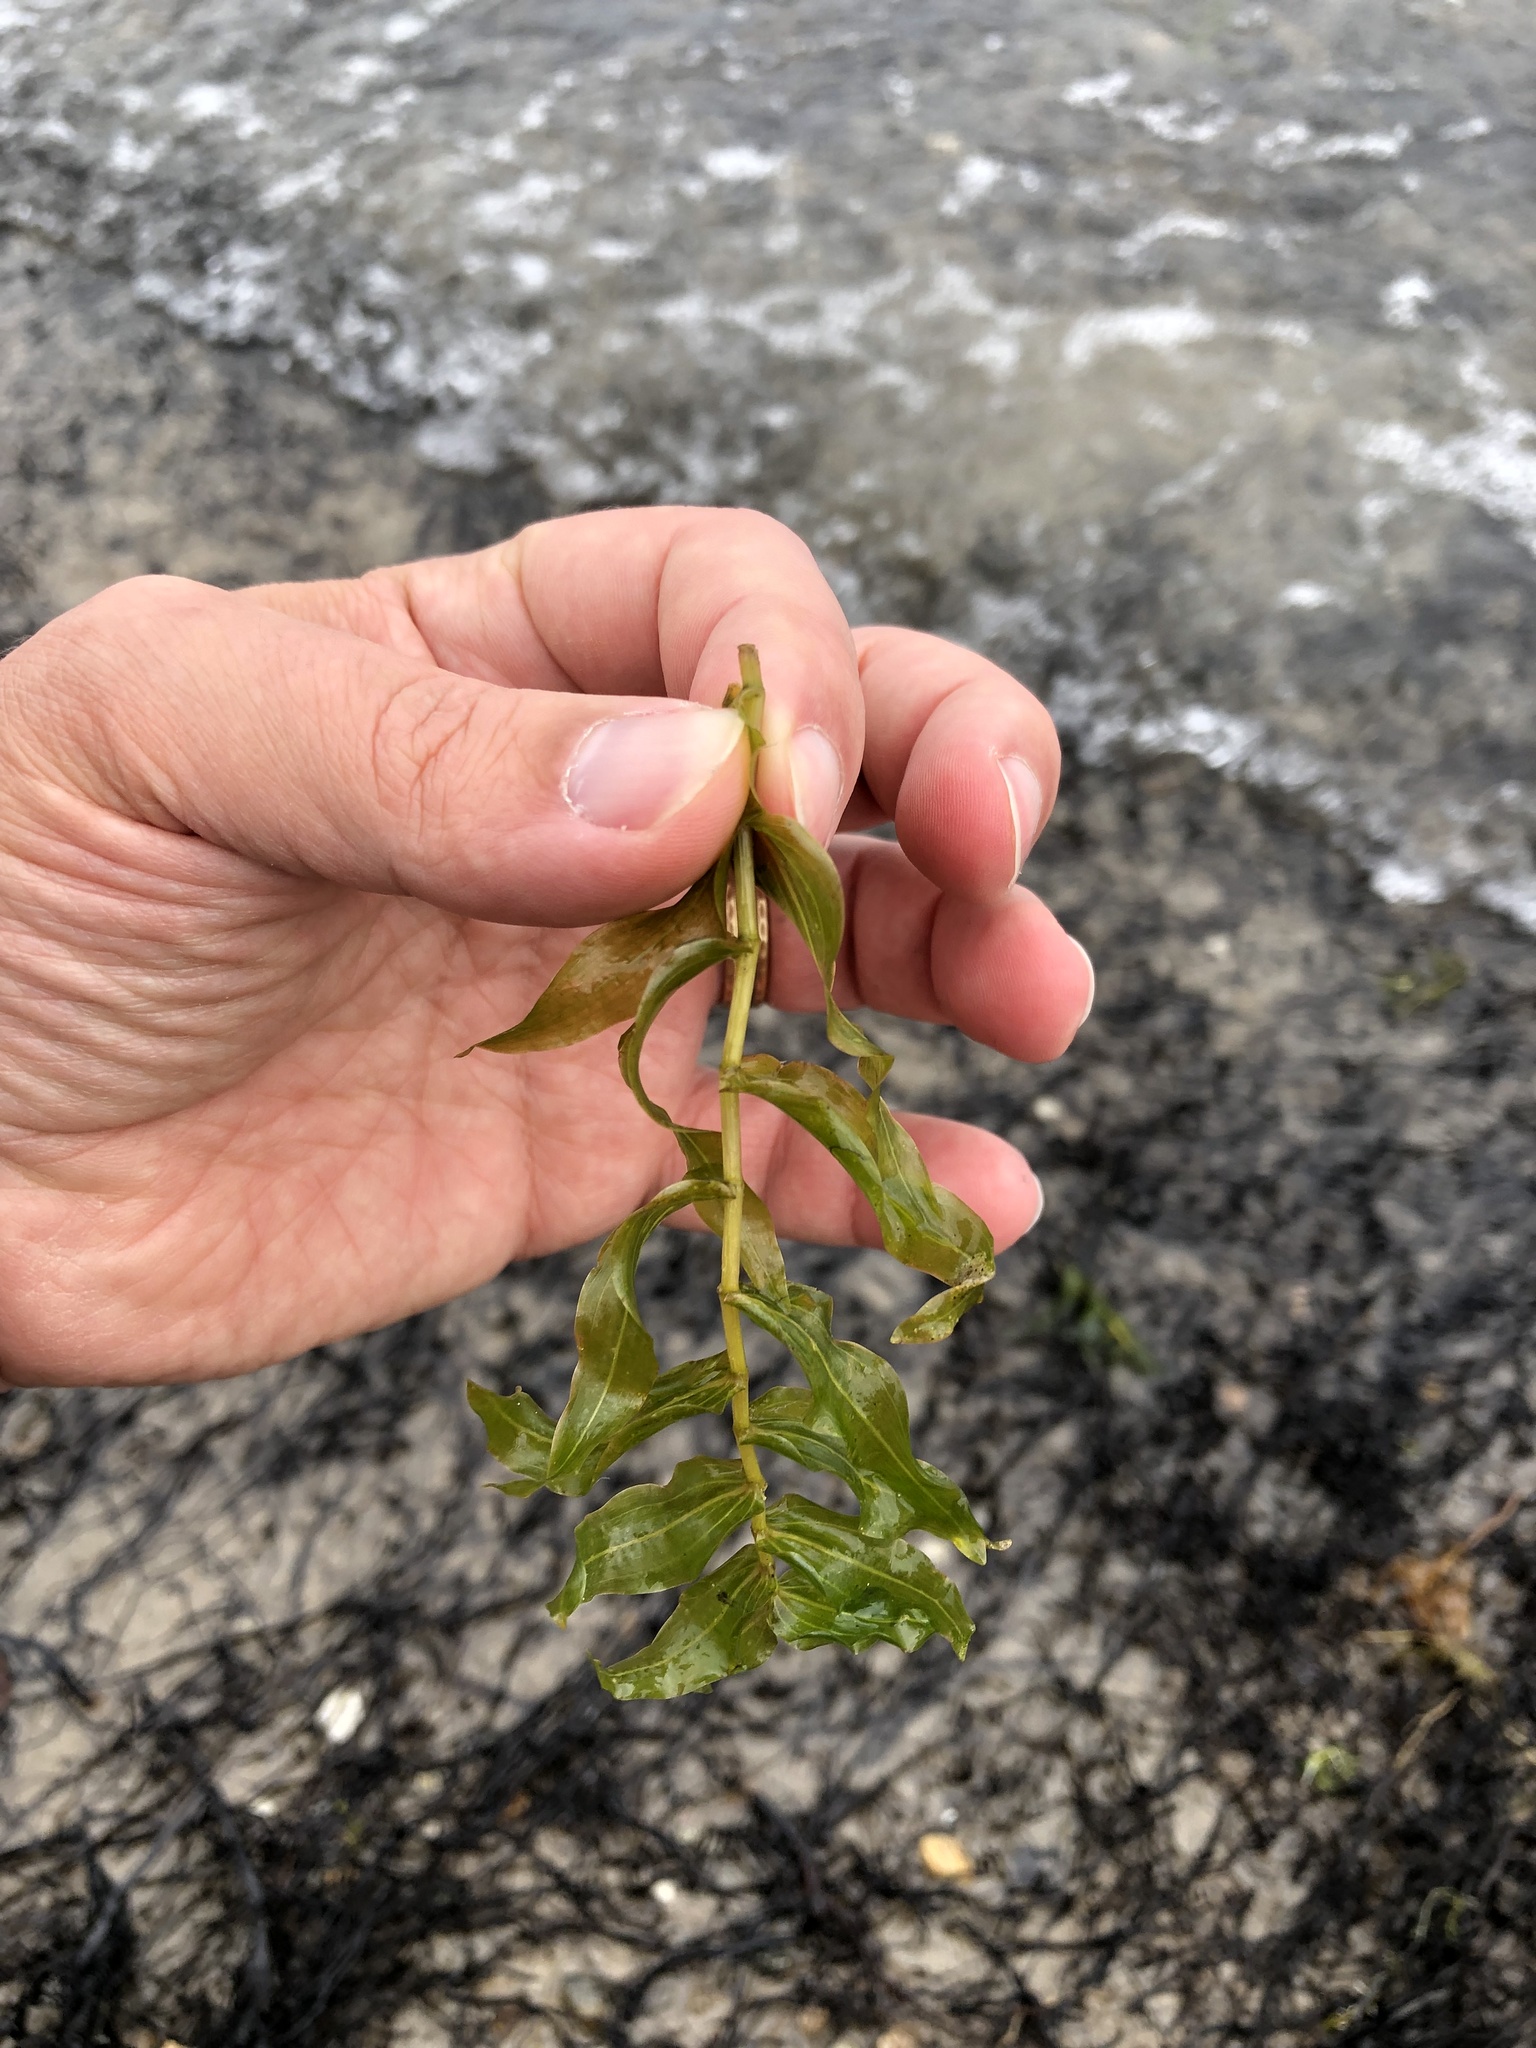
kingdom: Plantae
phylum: Tracheophyta
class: Liliopsida
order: Alismatales
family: Potamogetonaceae
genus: Potamogeton
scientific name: Potamogeton richardsonii
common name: Richardson's pondweed
